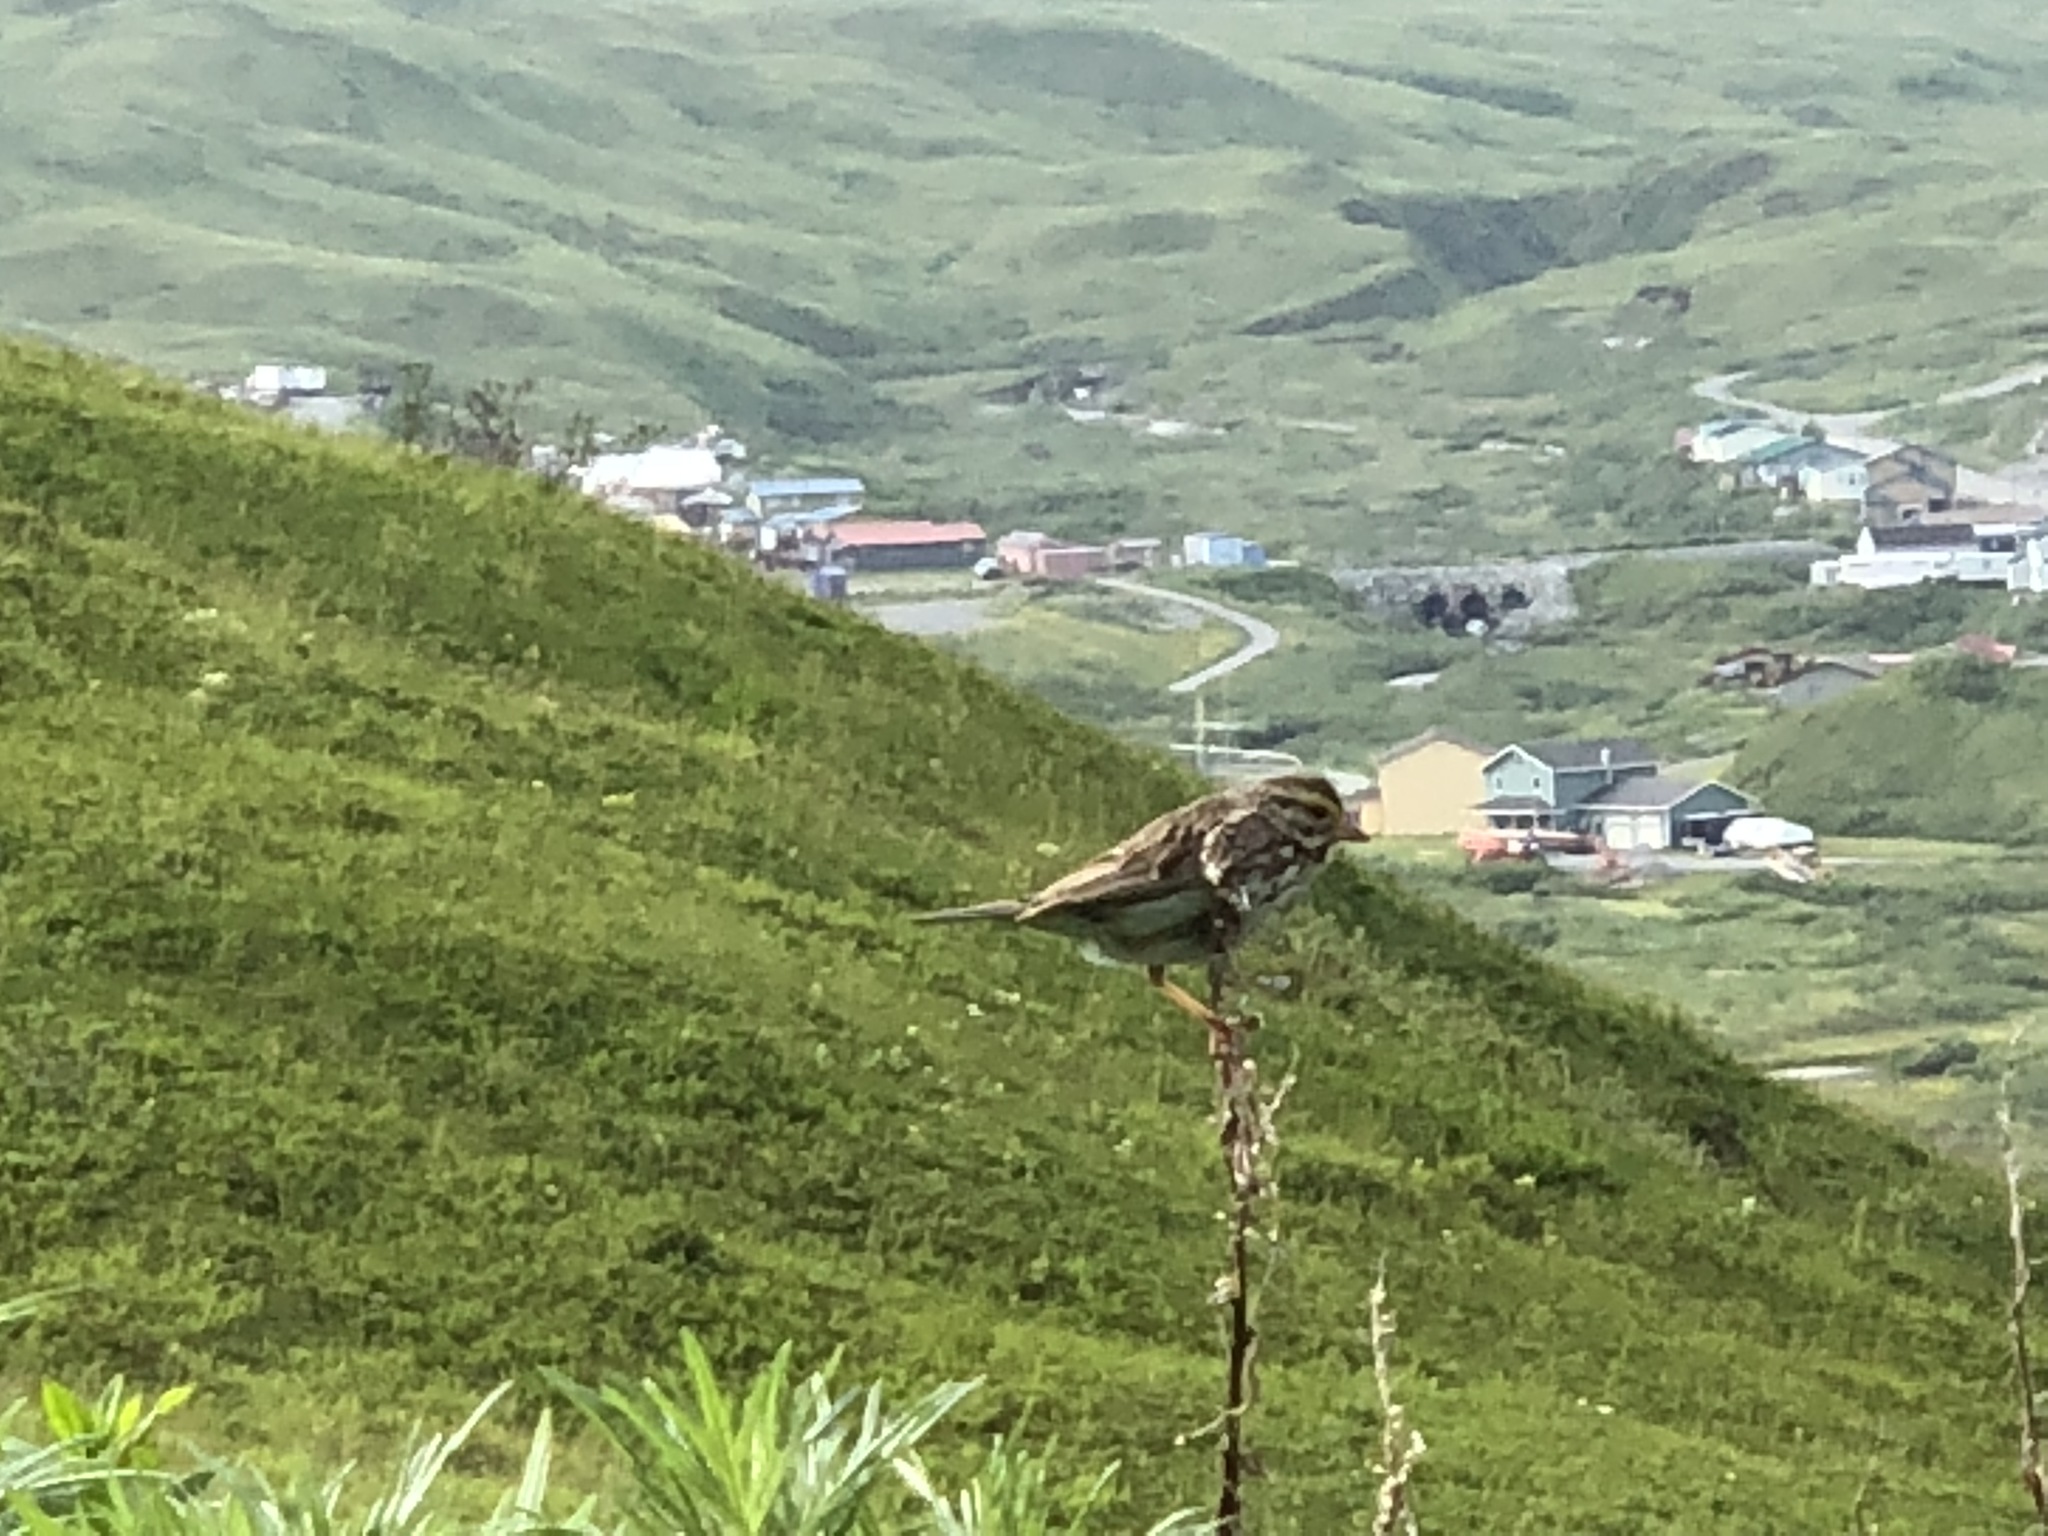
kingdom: Animalia
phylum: Chordata
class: Aves
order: Passeriformes
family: Passerellidae
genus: Passerculus
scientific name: Passerculus sandwichensis
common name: Savannah sparrow
